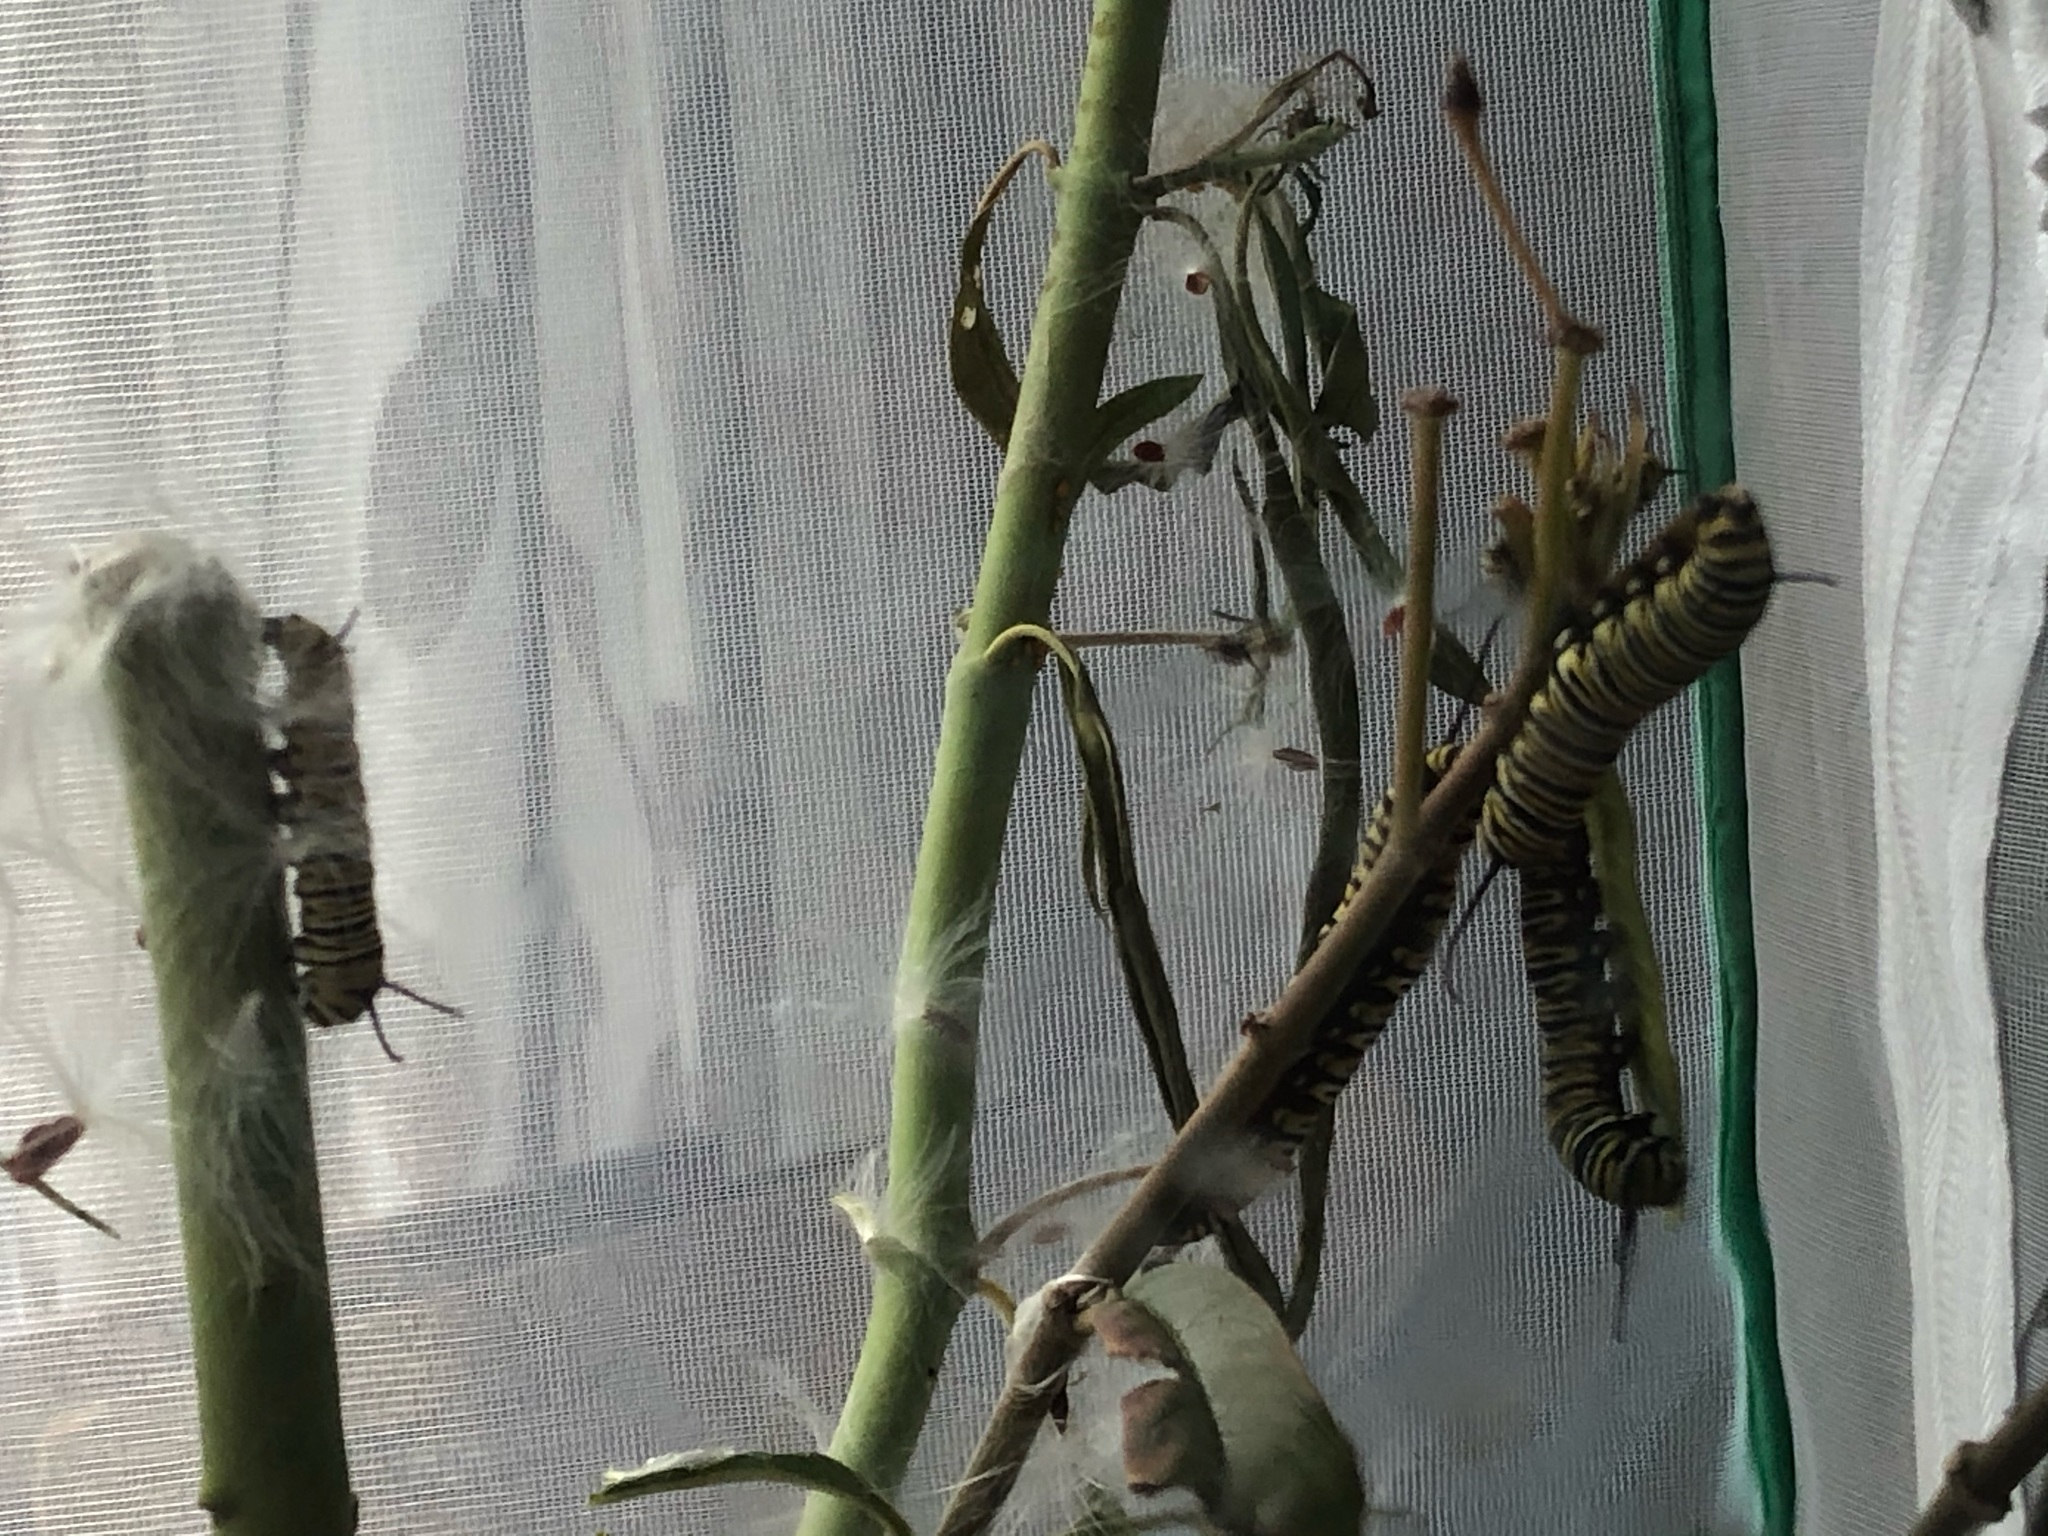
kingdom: Animalia
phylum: Arthropoda
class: Insecta
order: Lepidoptera
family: Nymphalidae
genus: Danaus
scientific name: Danaus plexippus
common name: Monarch
